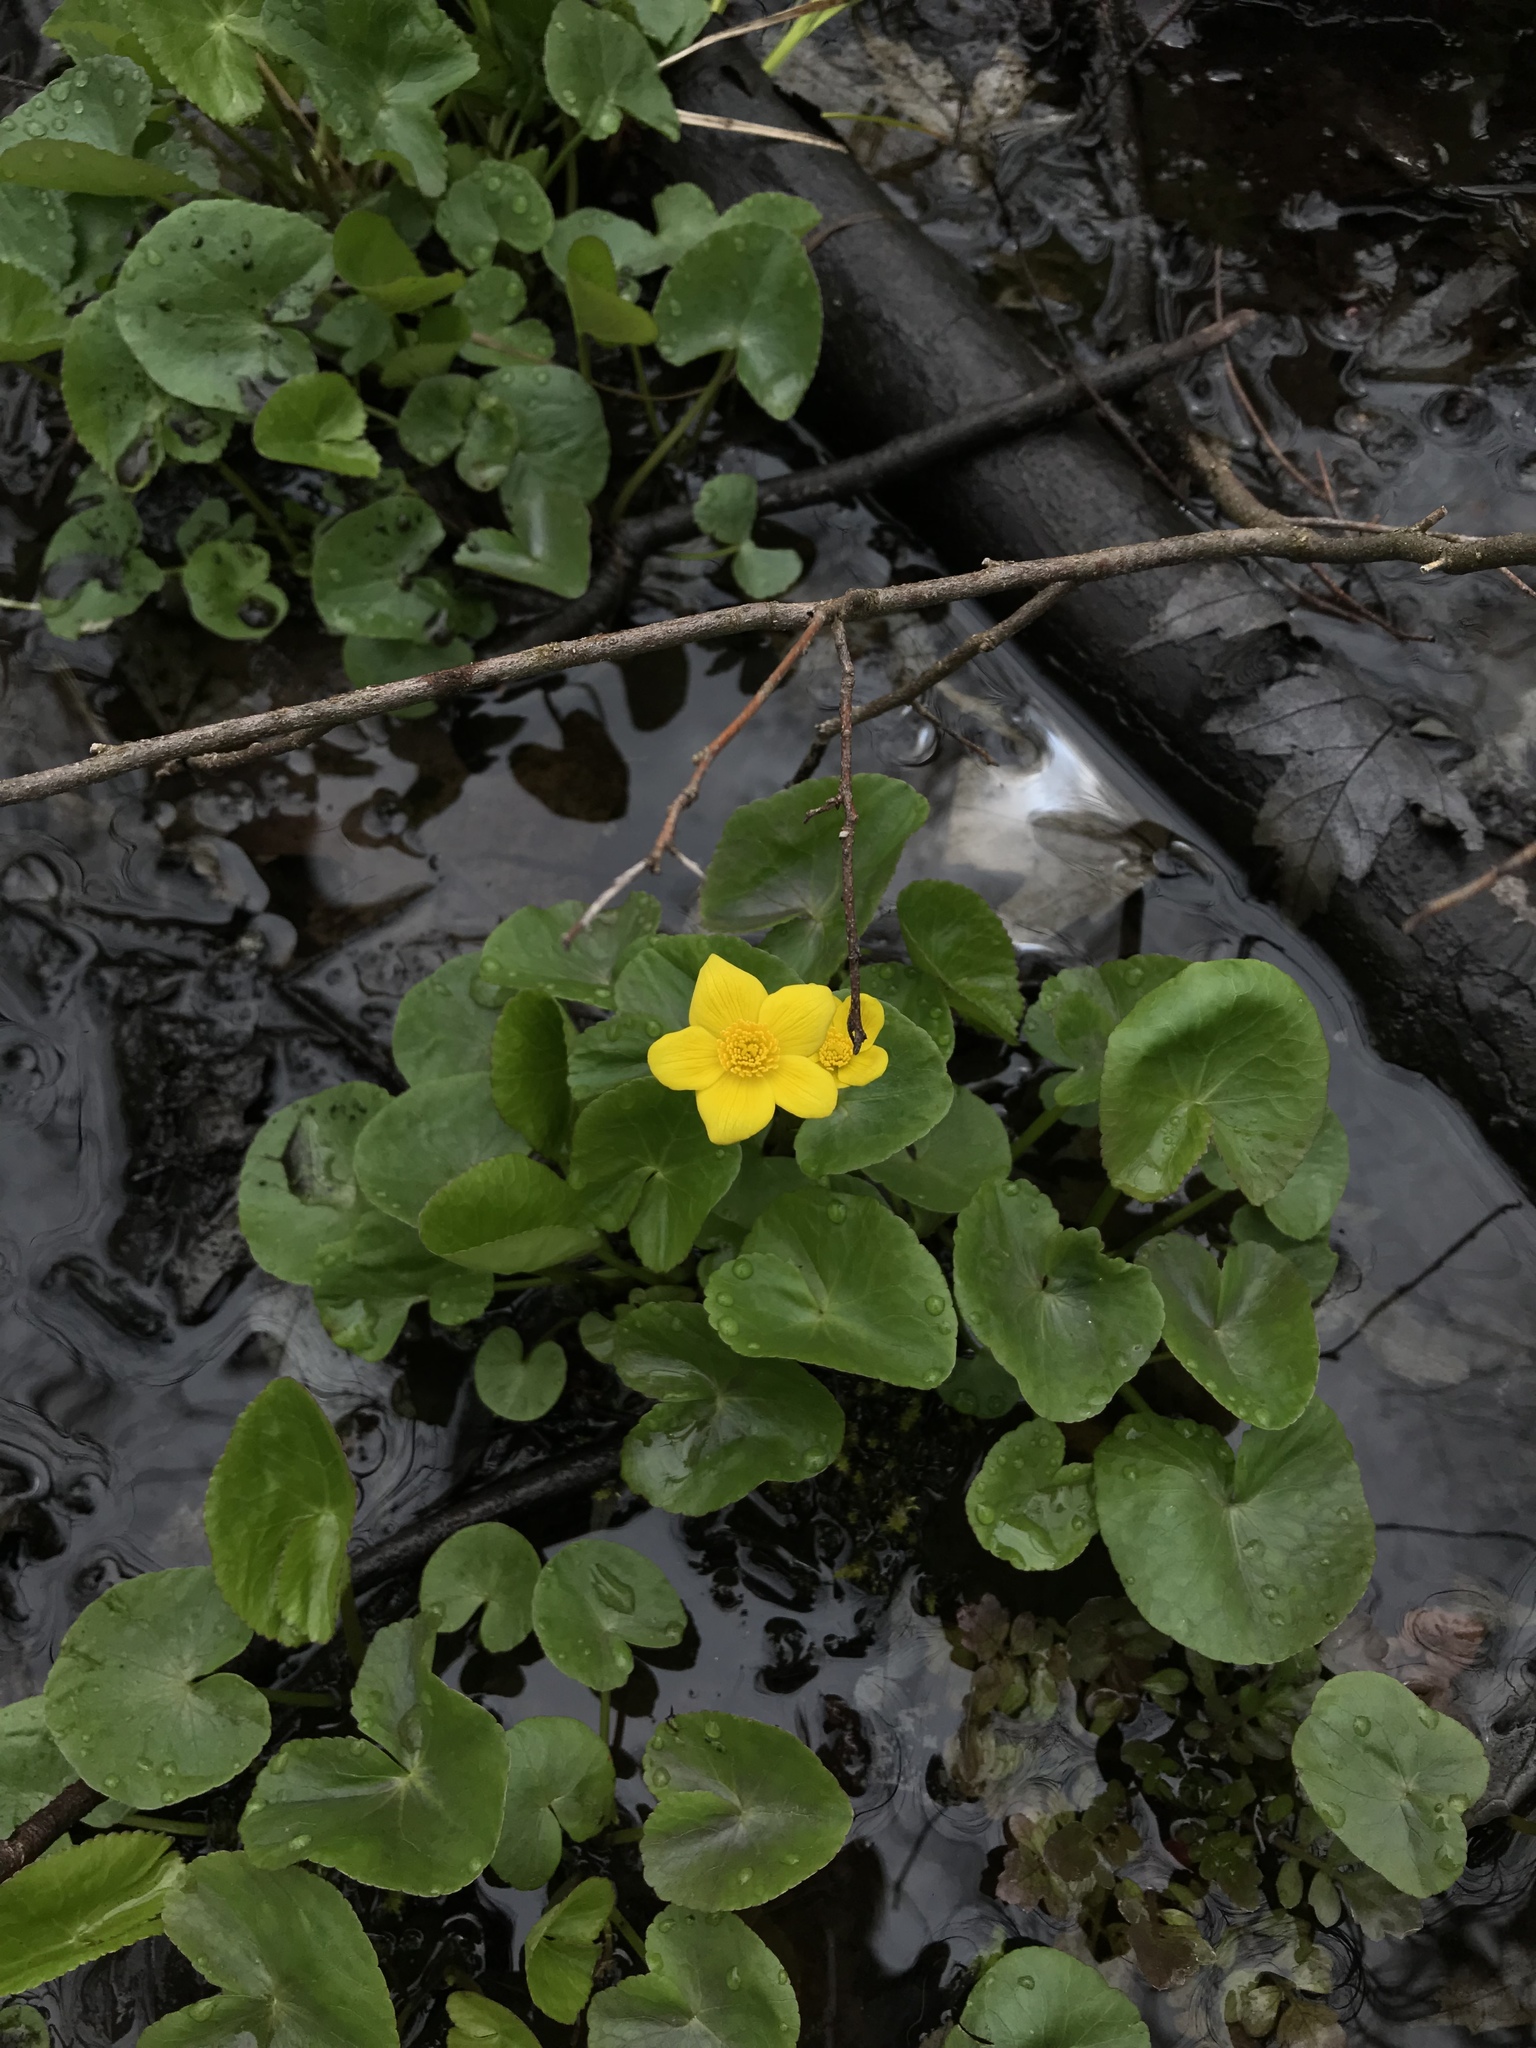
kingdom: Plantae
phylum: Tracheophyta
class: Magnoliopsida
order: Ranunculales
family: Ranunculaceae
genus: Caltha
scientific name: Caltha palustris
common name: Marsh marigold
